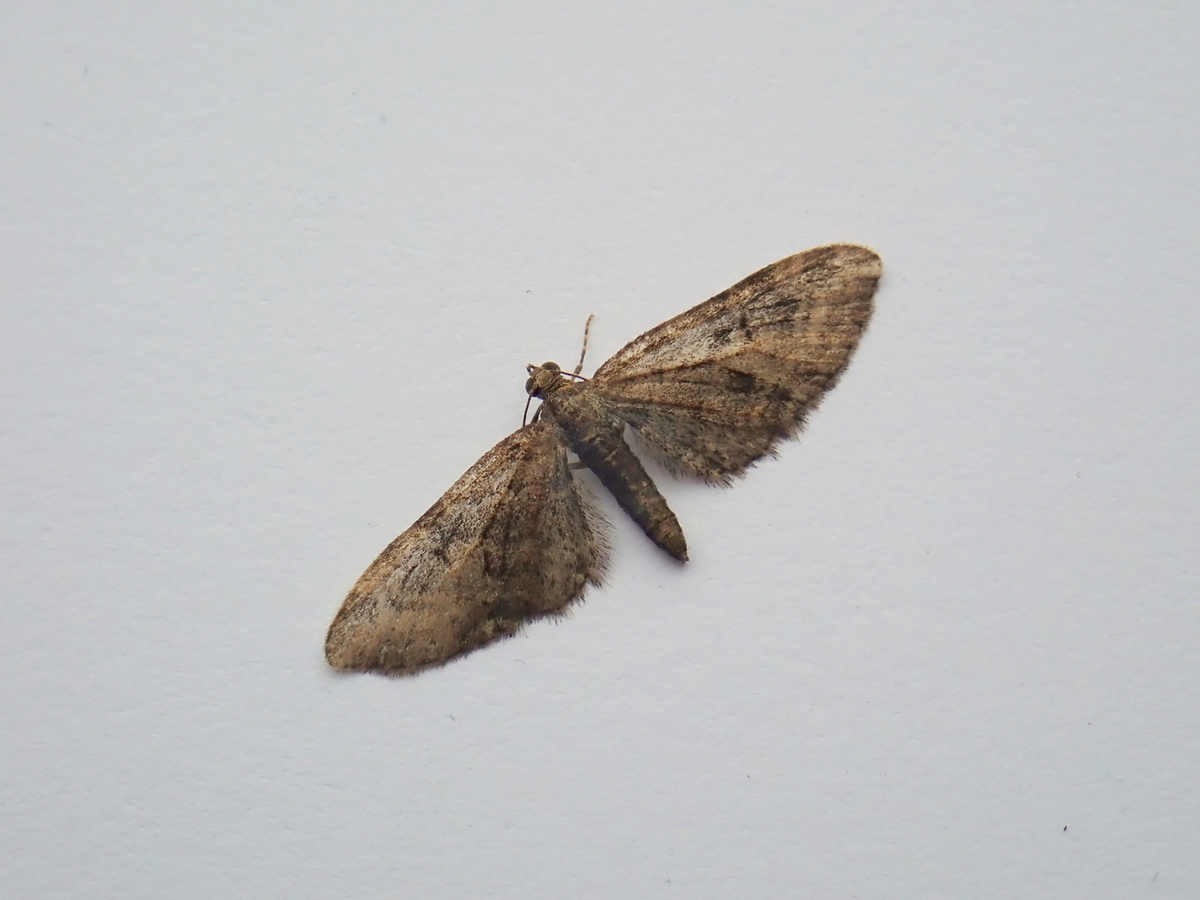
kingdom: Animalia
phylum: Arthropoda
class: Insecta
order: Lepidoptera
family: Geometridae
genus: Eupithecia
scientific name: Eupithecia abbreviata
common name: Brindled pug
